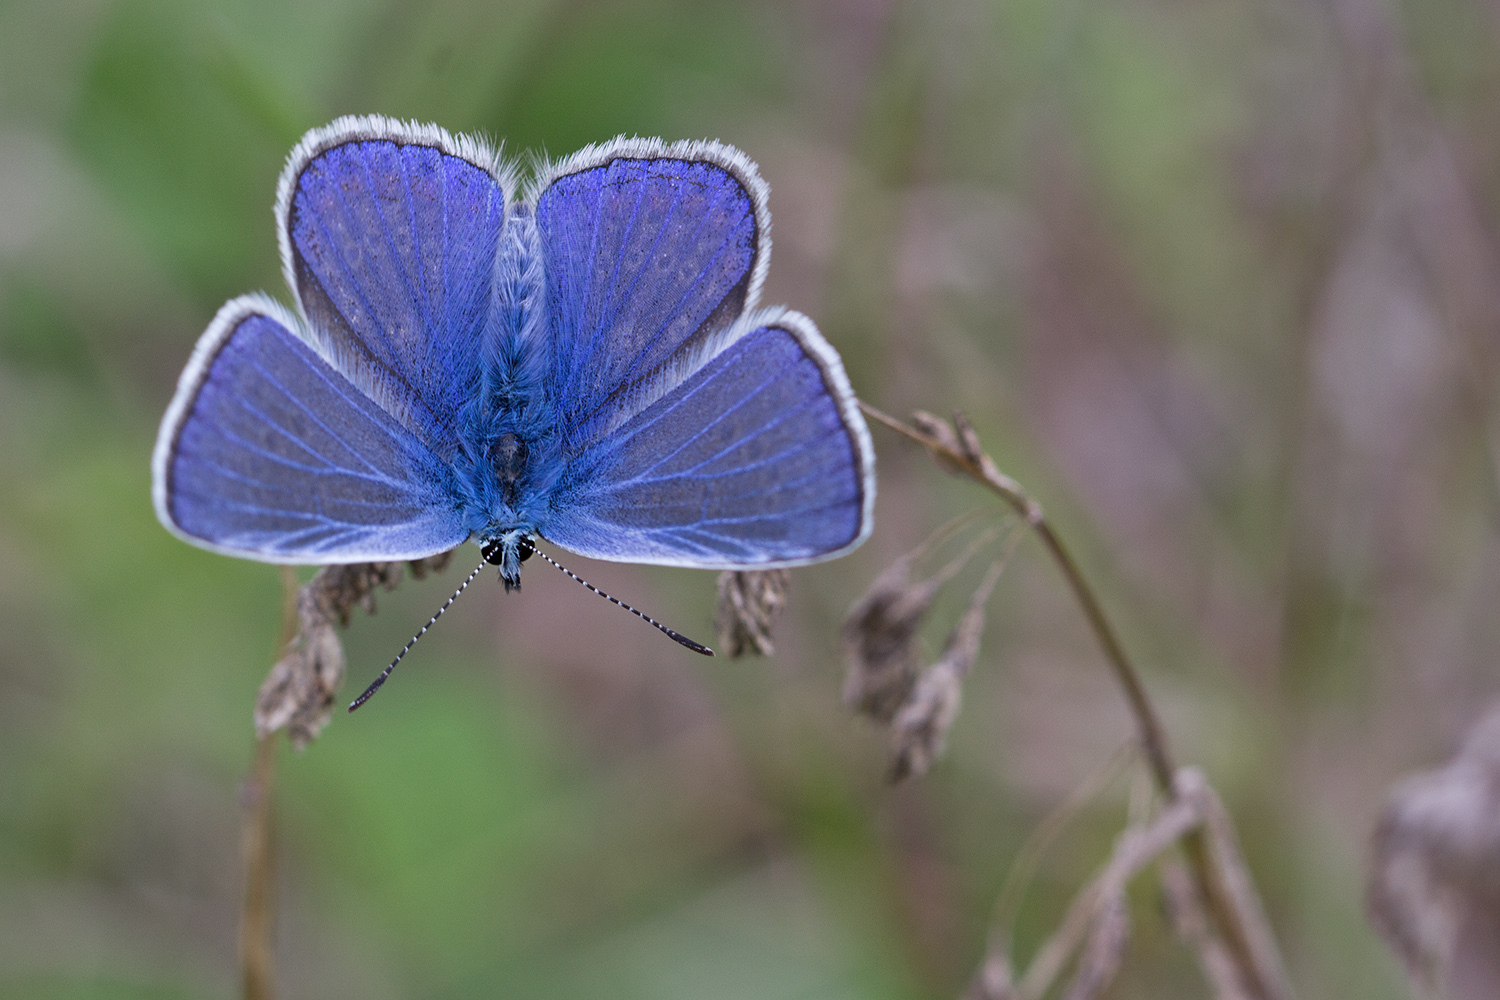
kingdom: Animalia
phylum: Arthropoda
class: Insecta
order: Lepidoptera
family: Lycaenidae
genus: Polyommatus
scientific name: Polyommatus icarus
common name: Common blue
